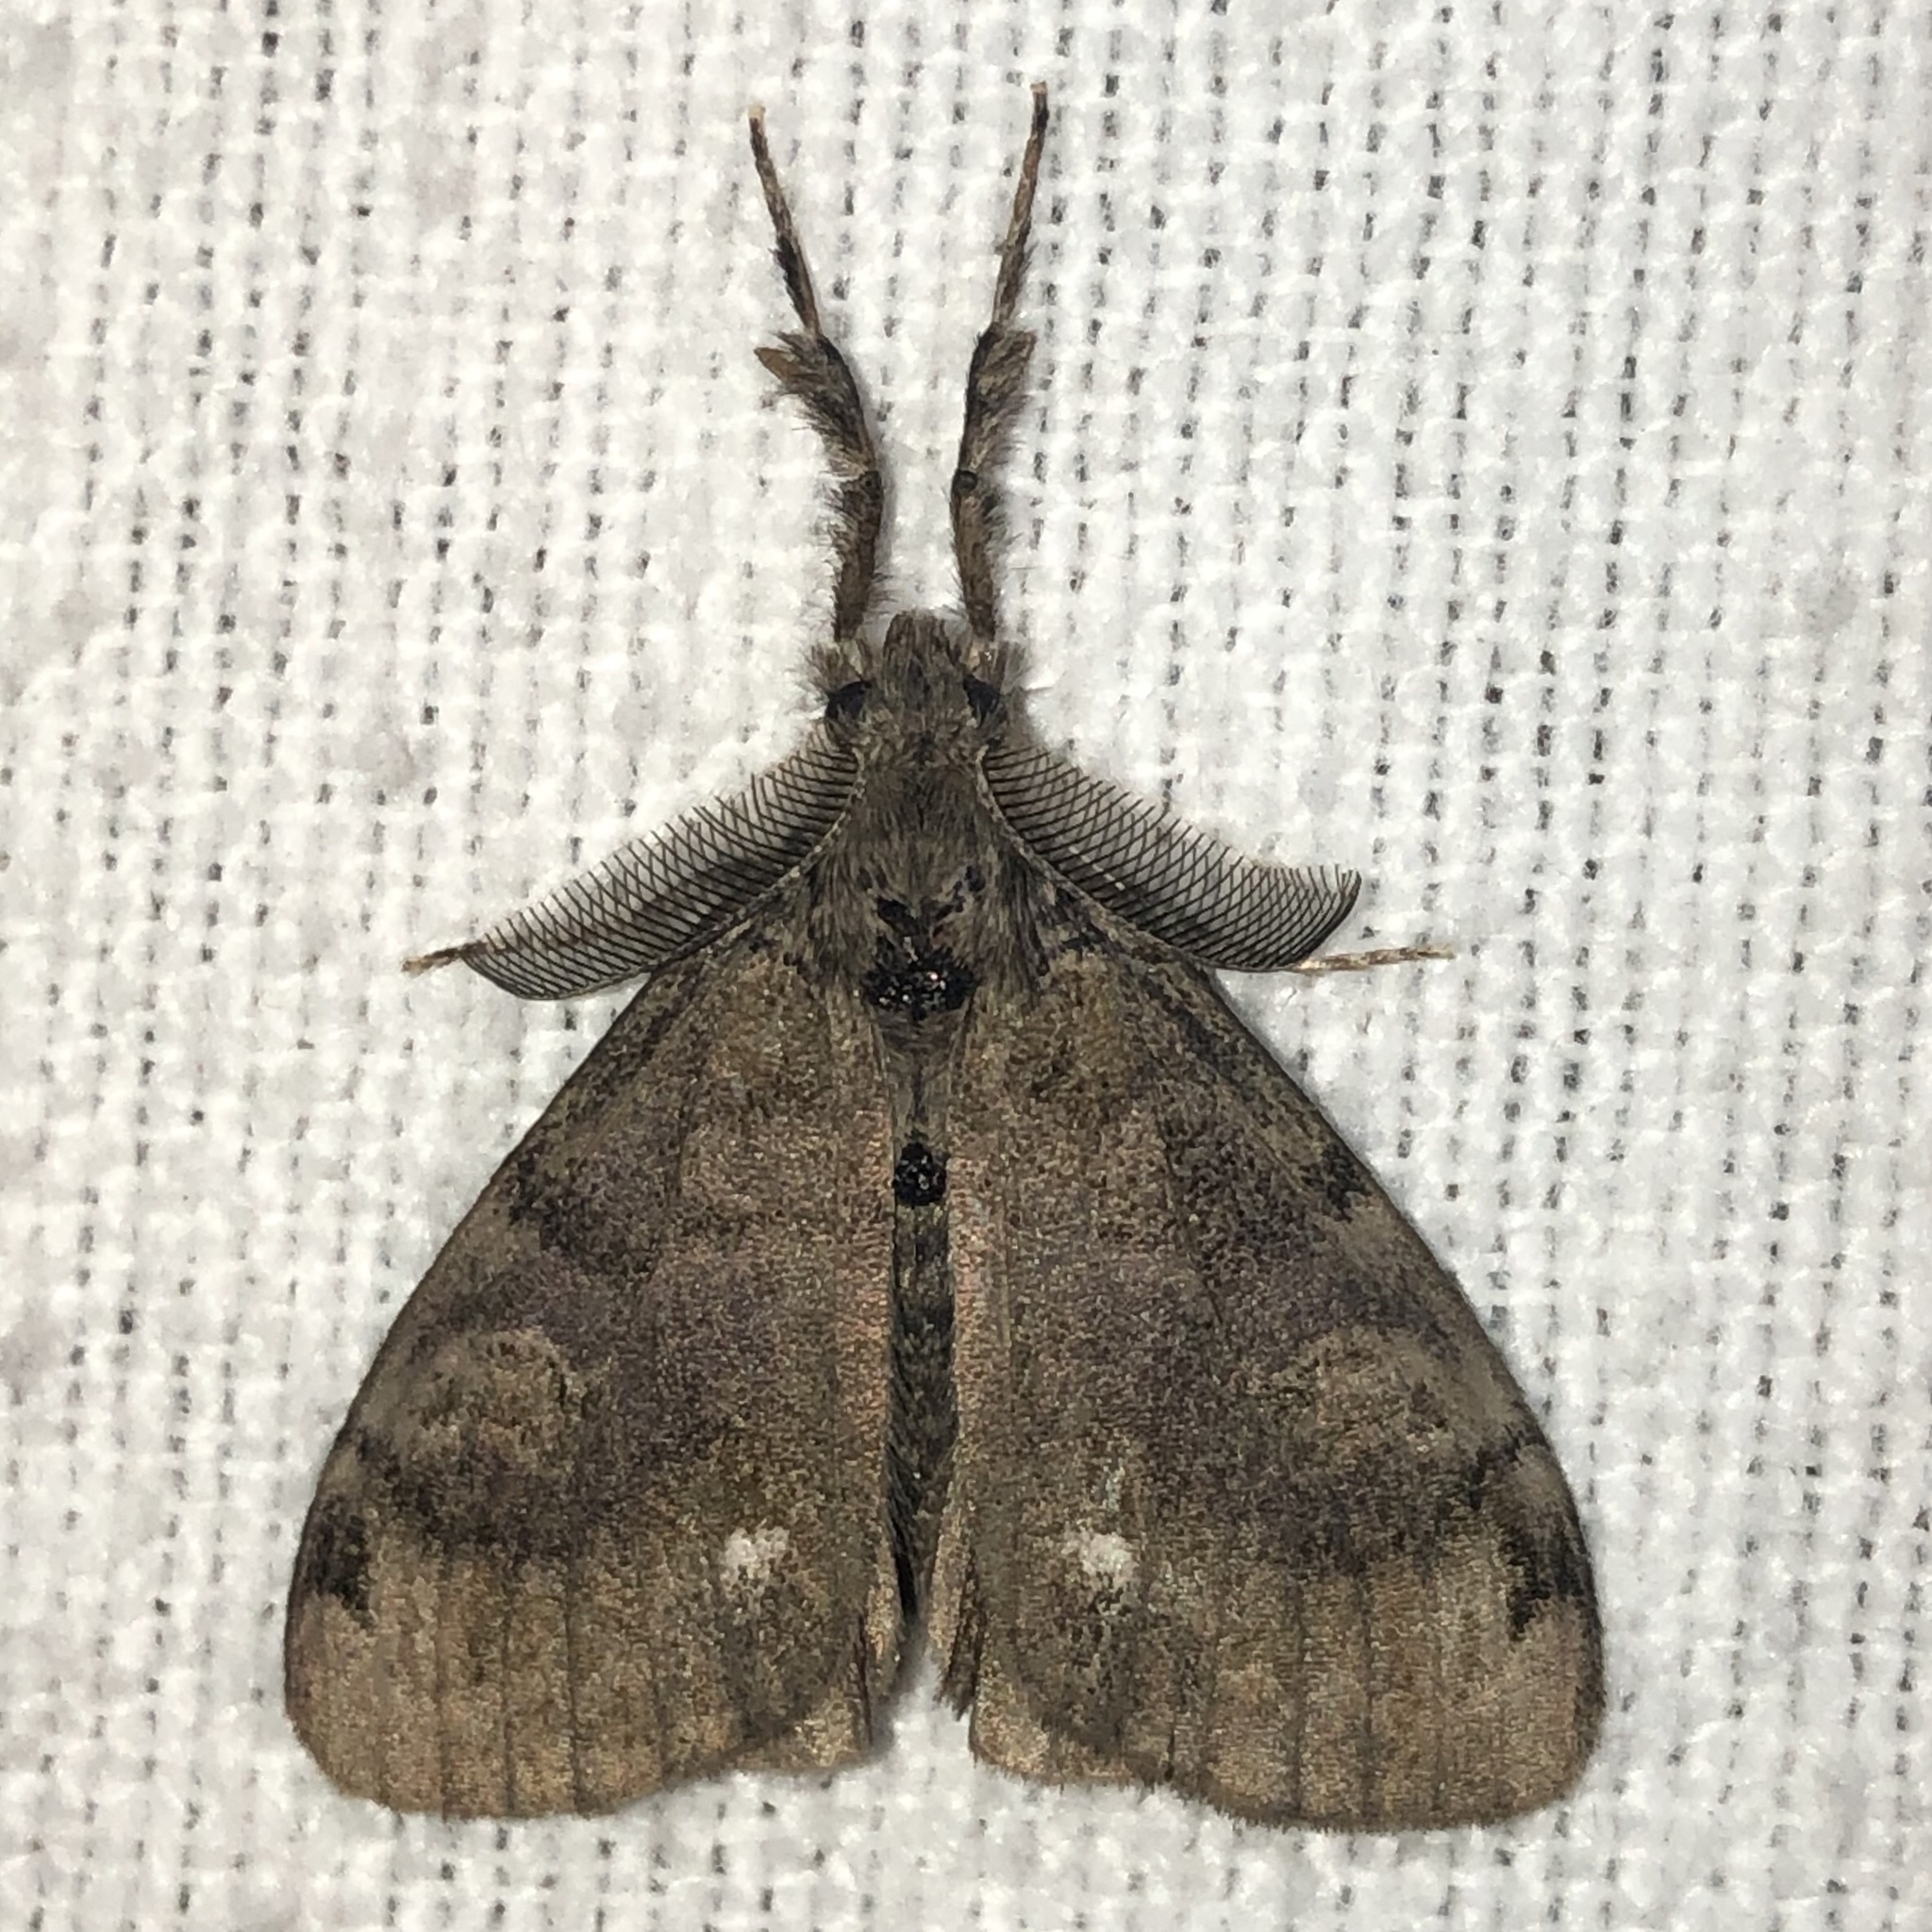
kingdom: Animalia
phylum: Arthropoda
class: Insecta
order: Lepidoptera
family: Erebidae
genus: Orgyia
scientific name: Orgyia leucostigma
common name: White-marked tussock moth
